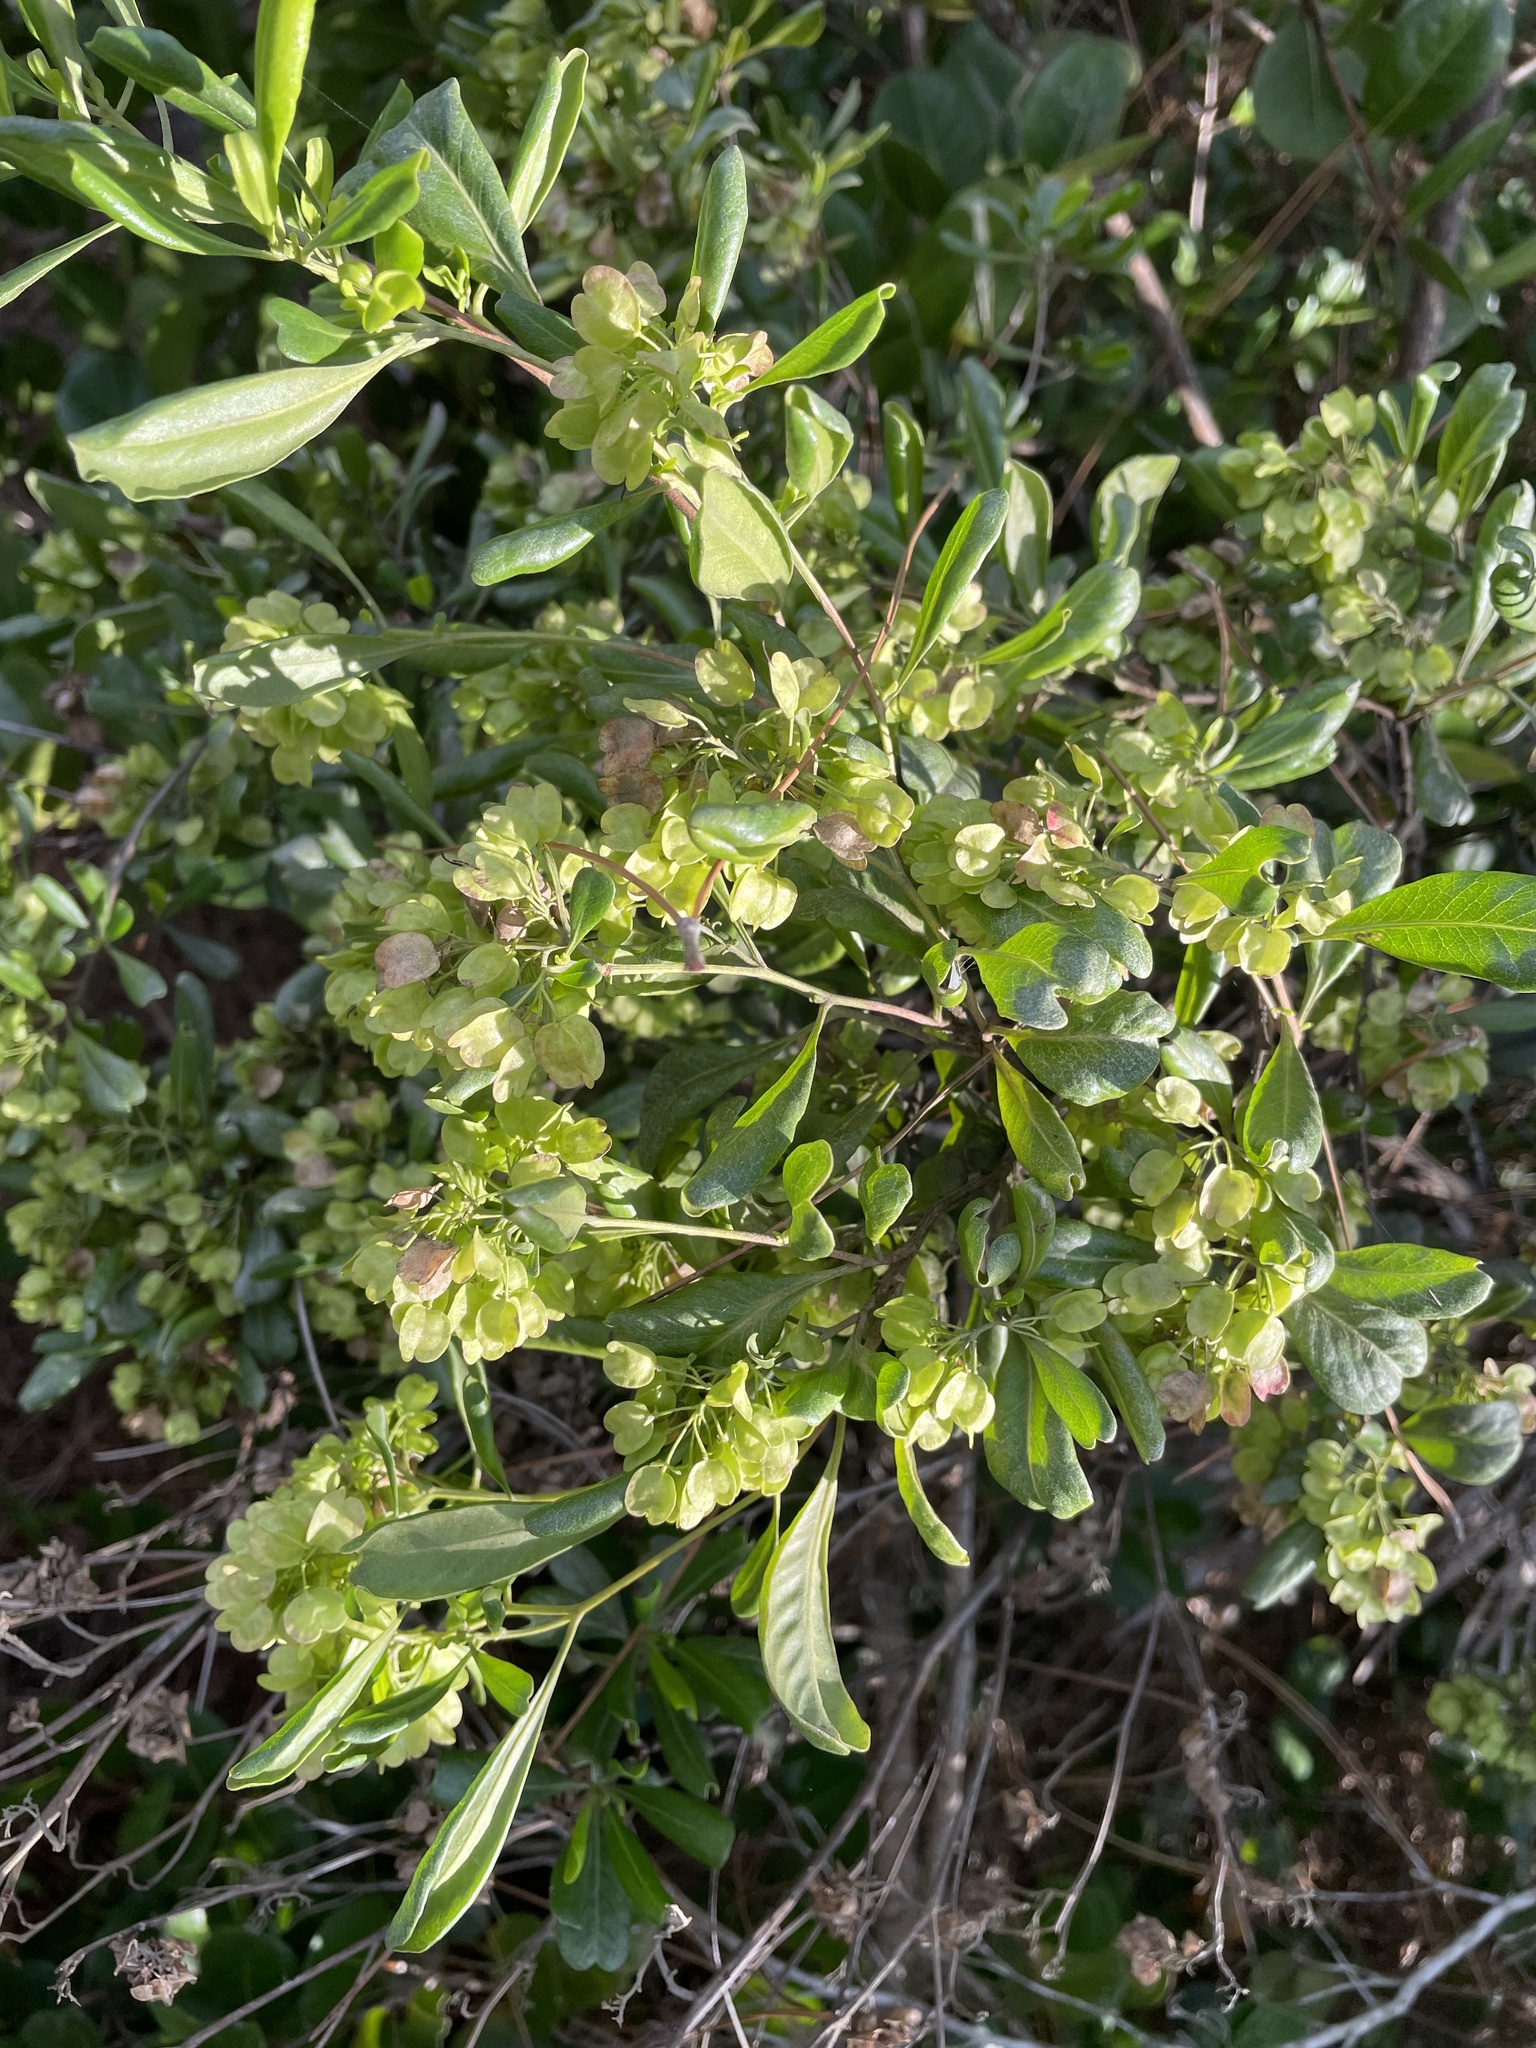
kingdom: Plantae
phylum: Tracheophyta
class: Magnoliopsida
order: Sapindales
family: Sapindaceae
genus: Dodonaea
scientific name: Dodonaea viscosa
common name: Hopbush
